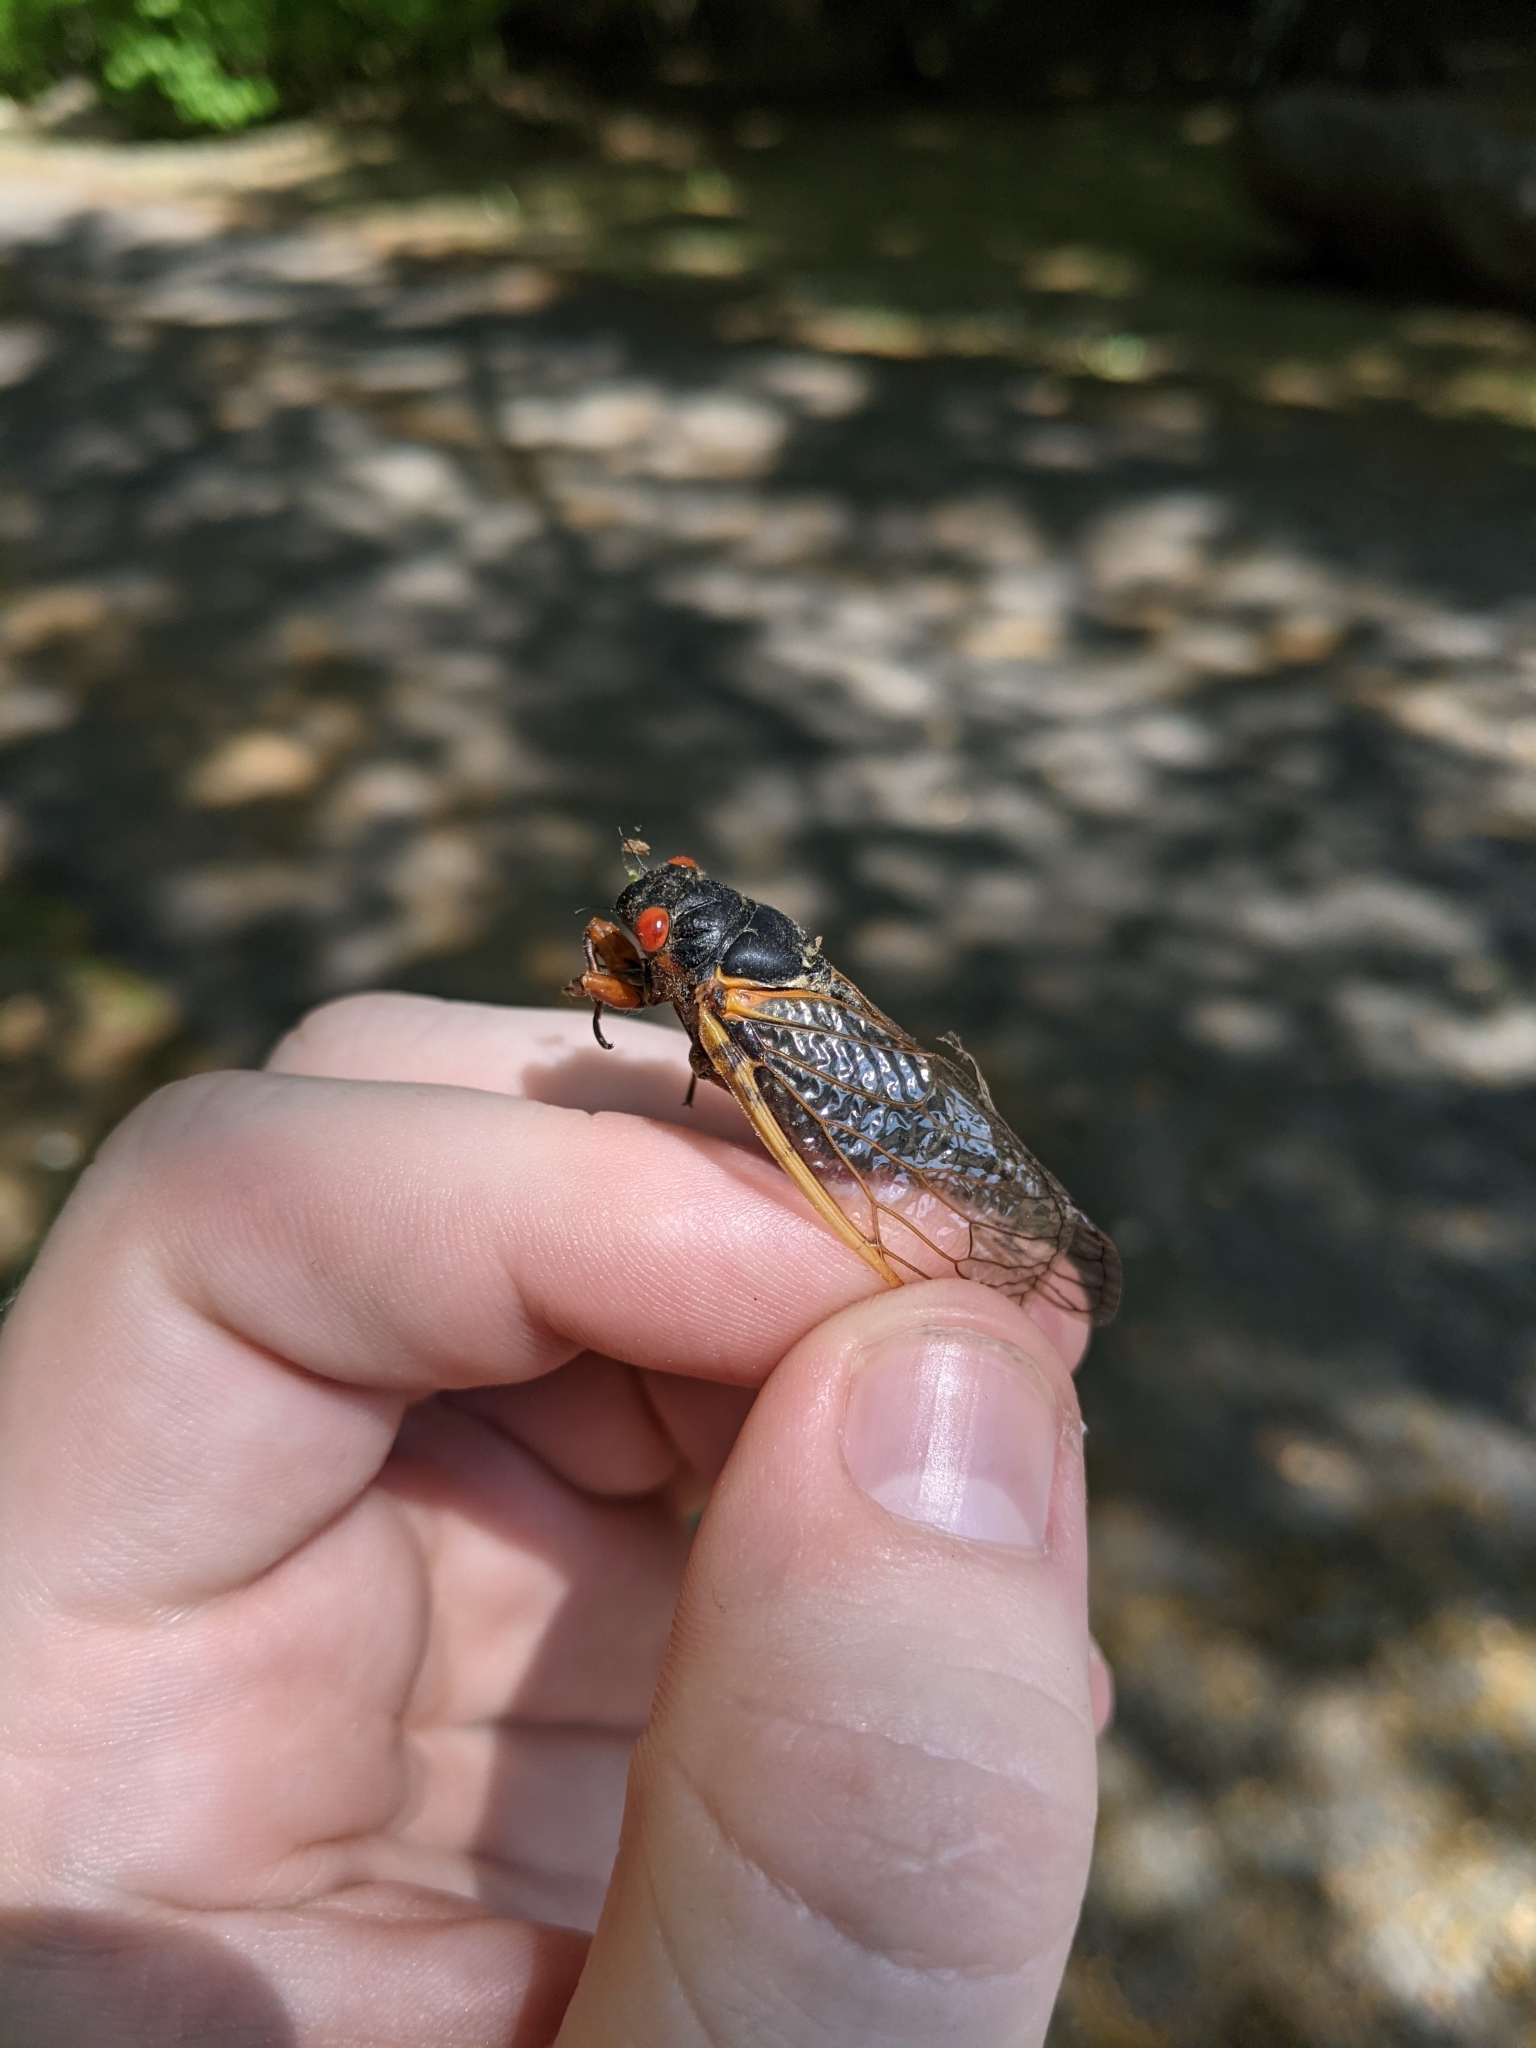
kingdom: Animalia
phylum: Arthropoda
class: Insecta
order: Hemiptera
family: Cicadidae
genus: Magicicada
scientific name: Magicicada septendecim
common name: Periodical cicada
